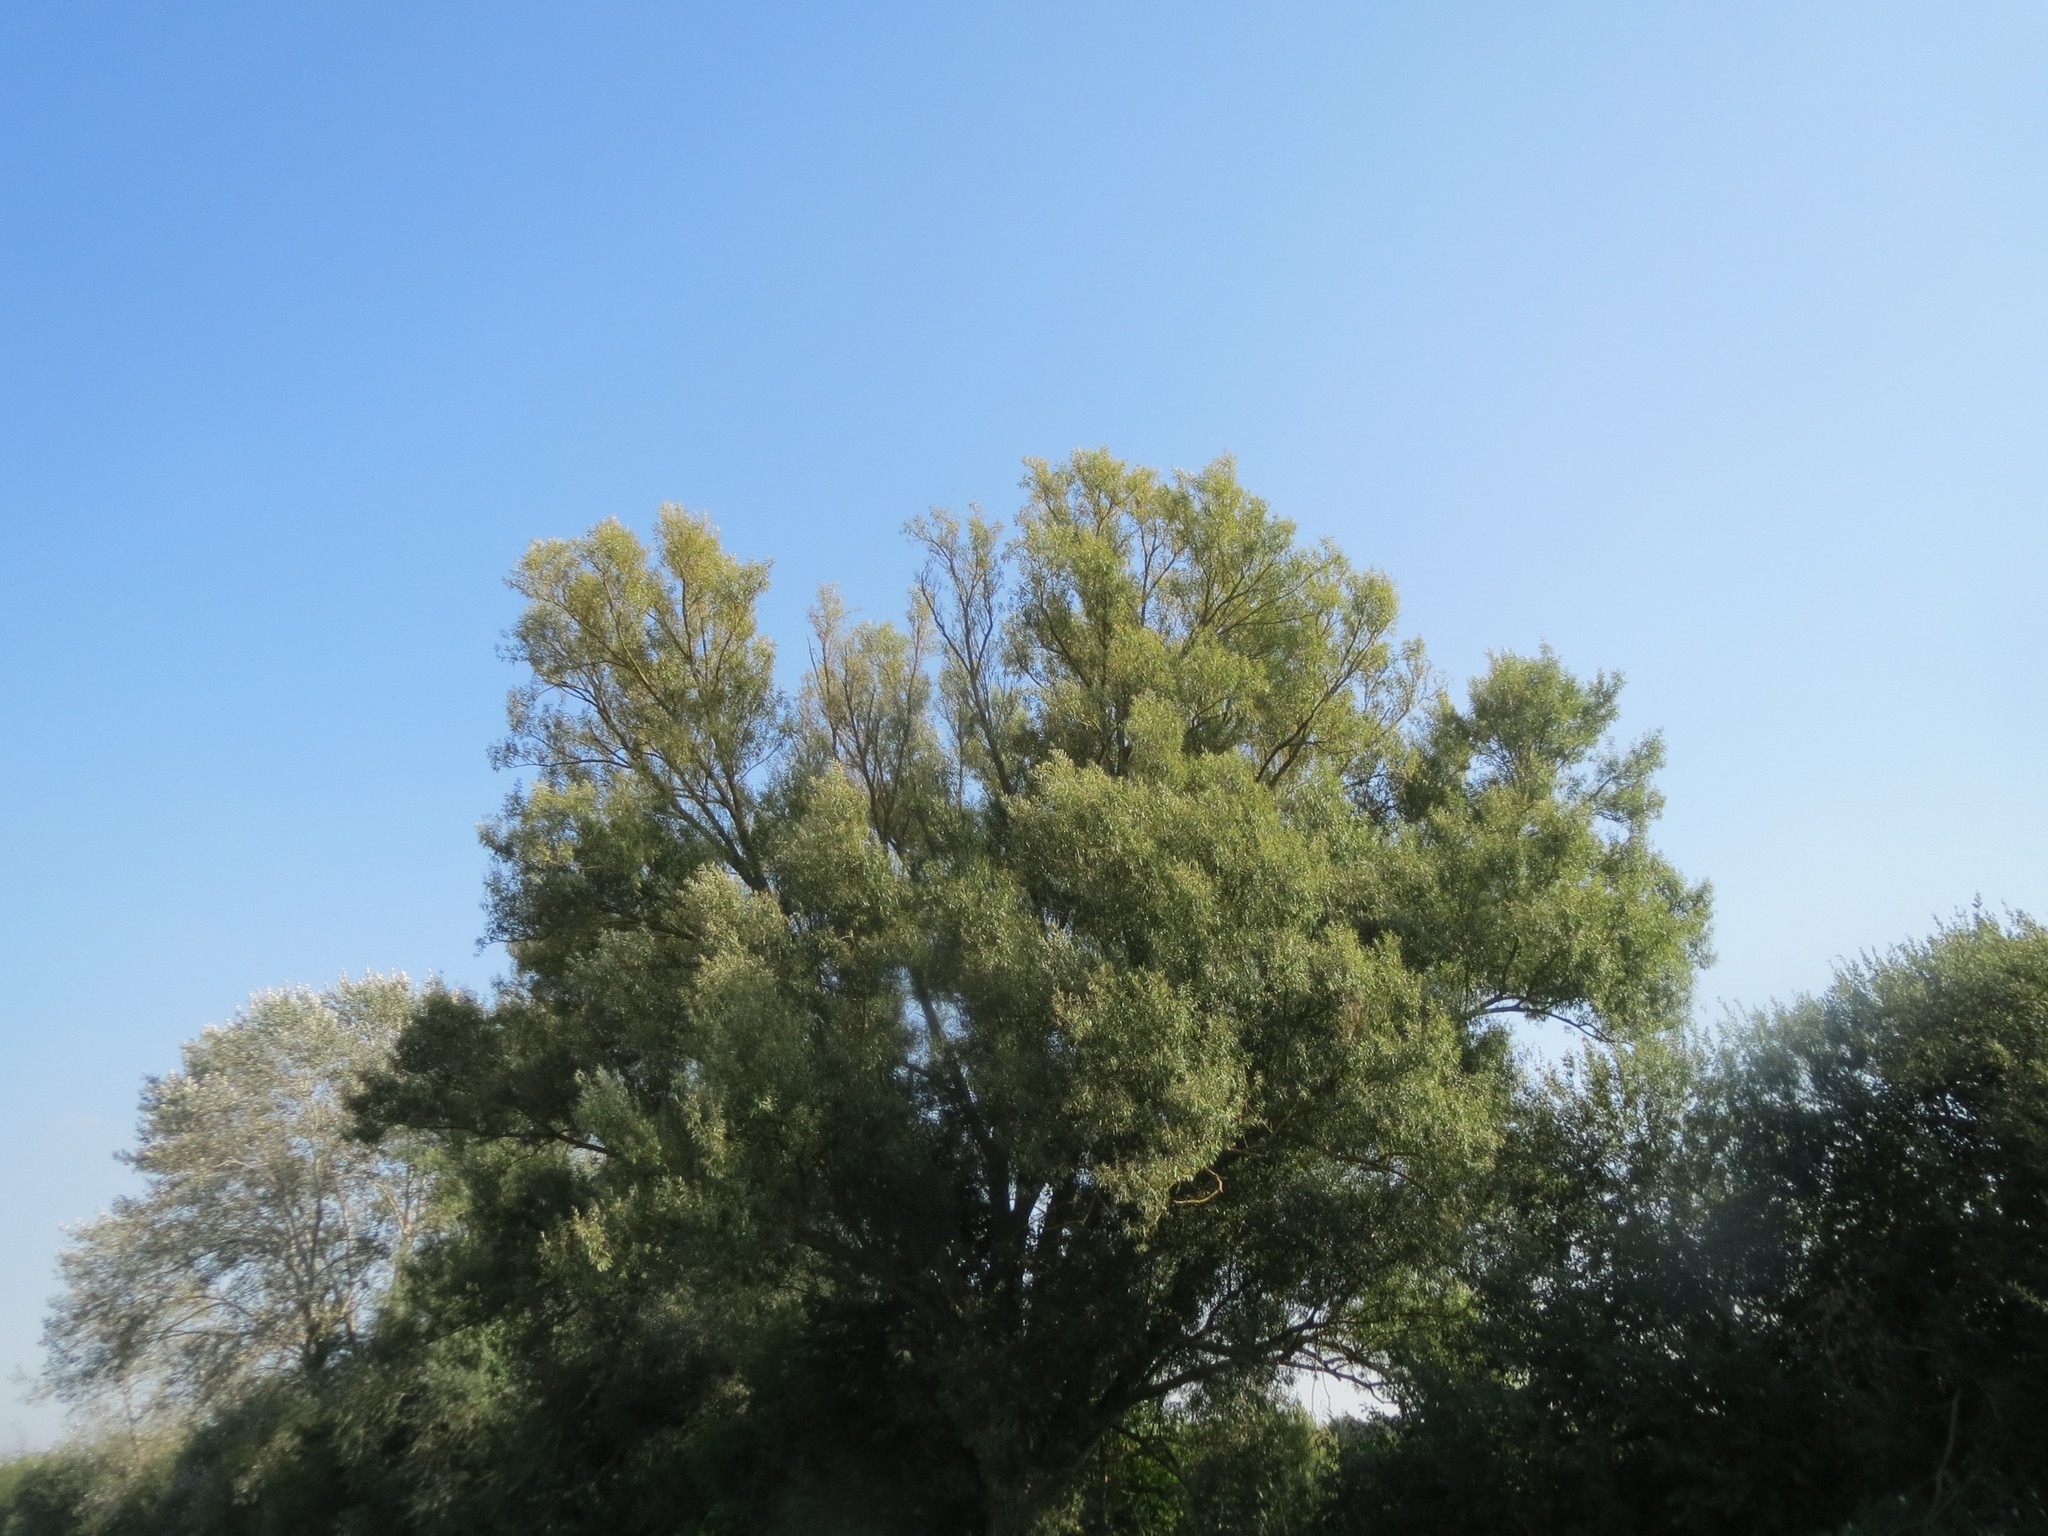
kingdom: Plantae
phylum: Tracheophyta
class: Magnoliopsida
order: Malpighiales
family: Salicaceae
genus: Salix
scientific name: Salix alba
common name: White willow
